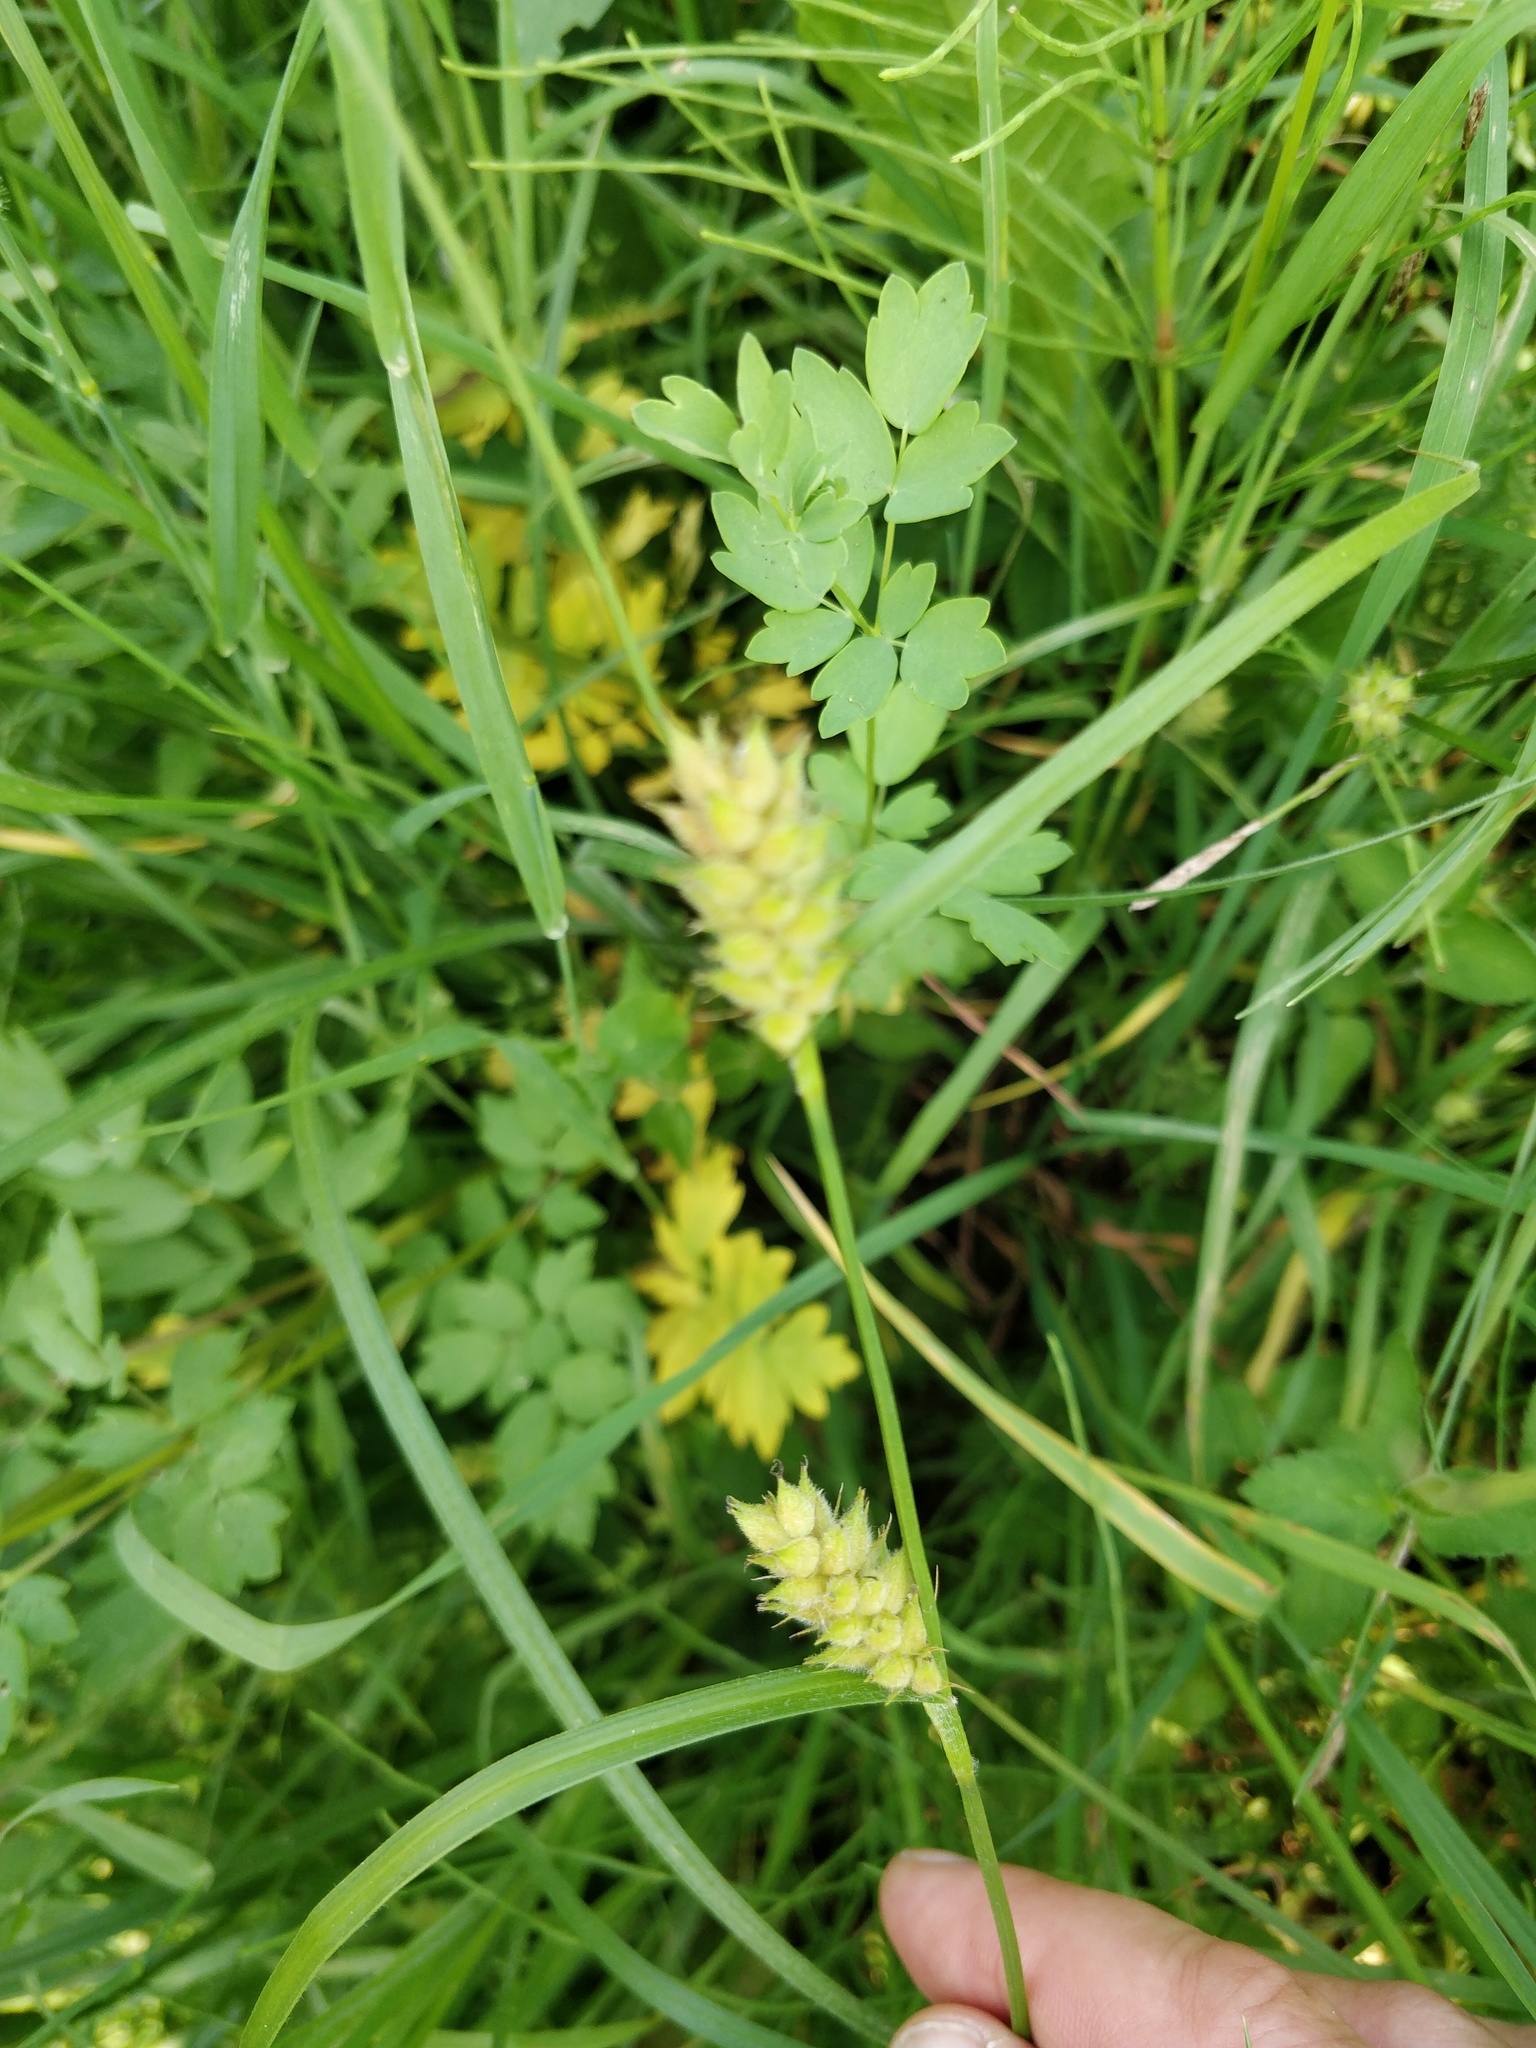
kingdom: Plantae
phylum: Tracheophyta
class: Liliopsida
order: Poales
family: Cyperaceae
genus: Carex
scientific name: Carex hirta
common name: Hairy sedge
